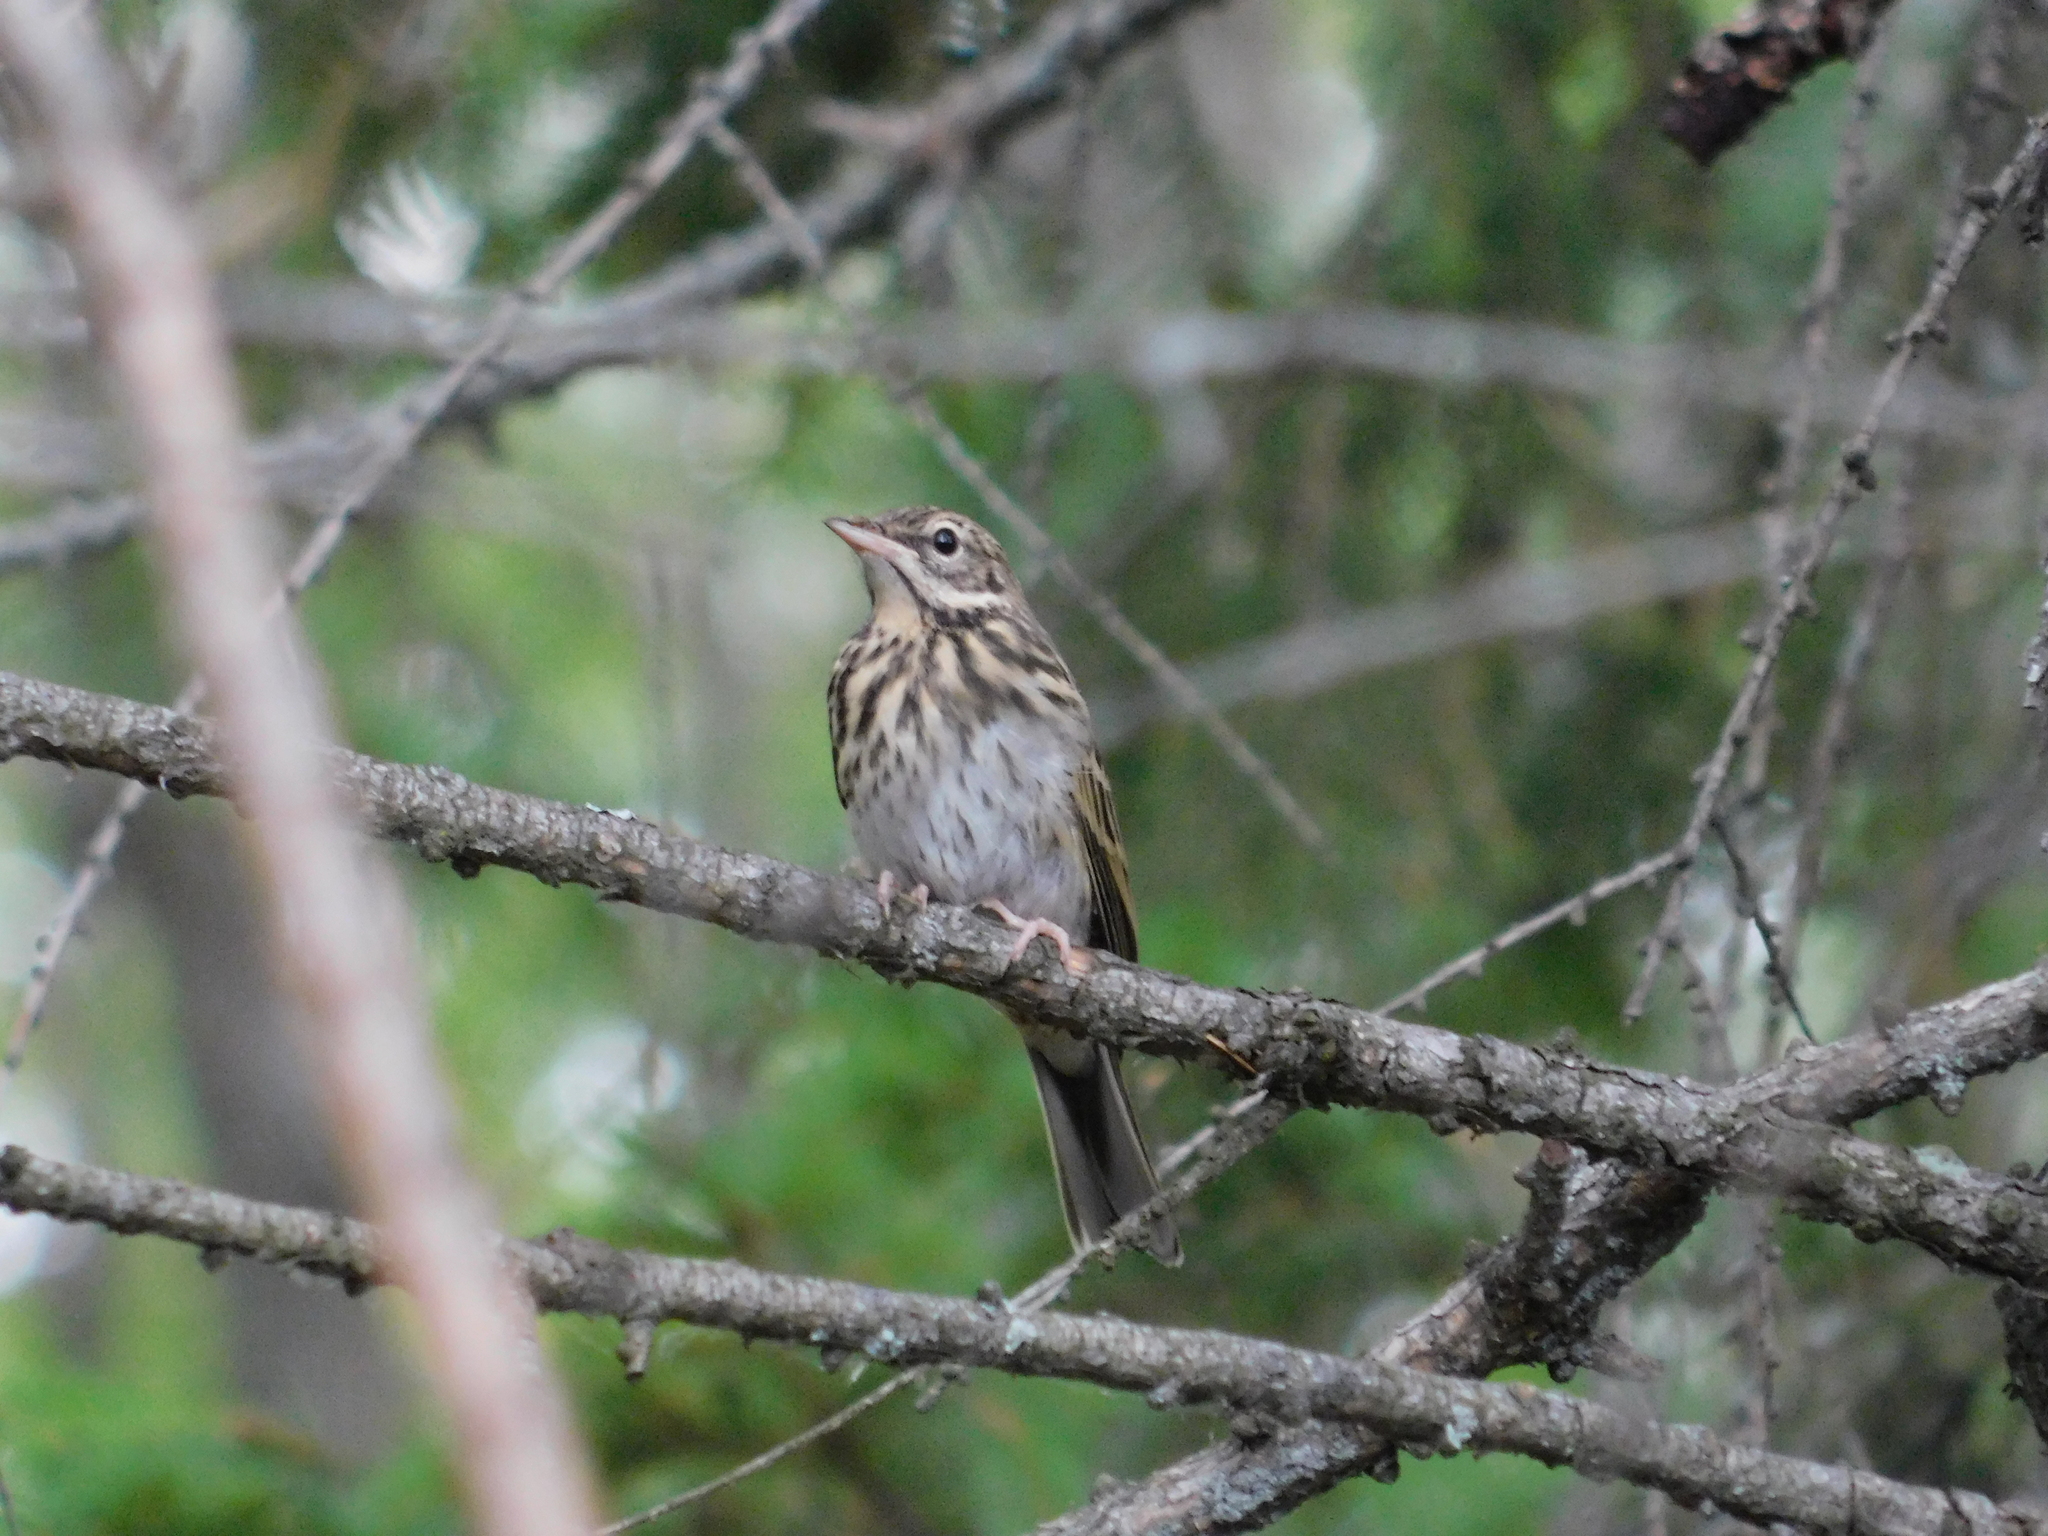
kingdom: Animalia
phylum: Chordata
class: Aves
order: Passeriformes
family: Motacillidae
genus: Anthus
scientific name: Anthus trivialis
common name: Tree pipit
